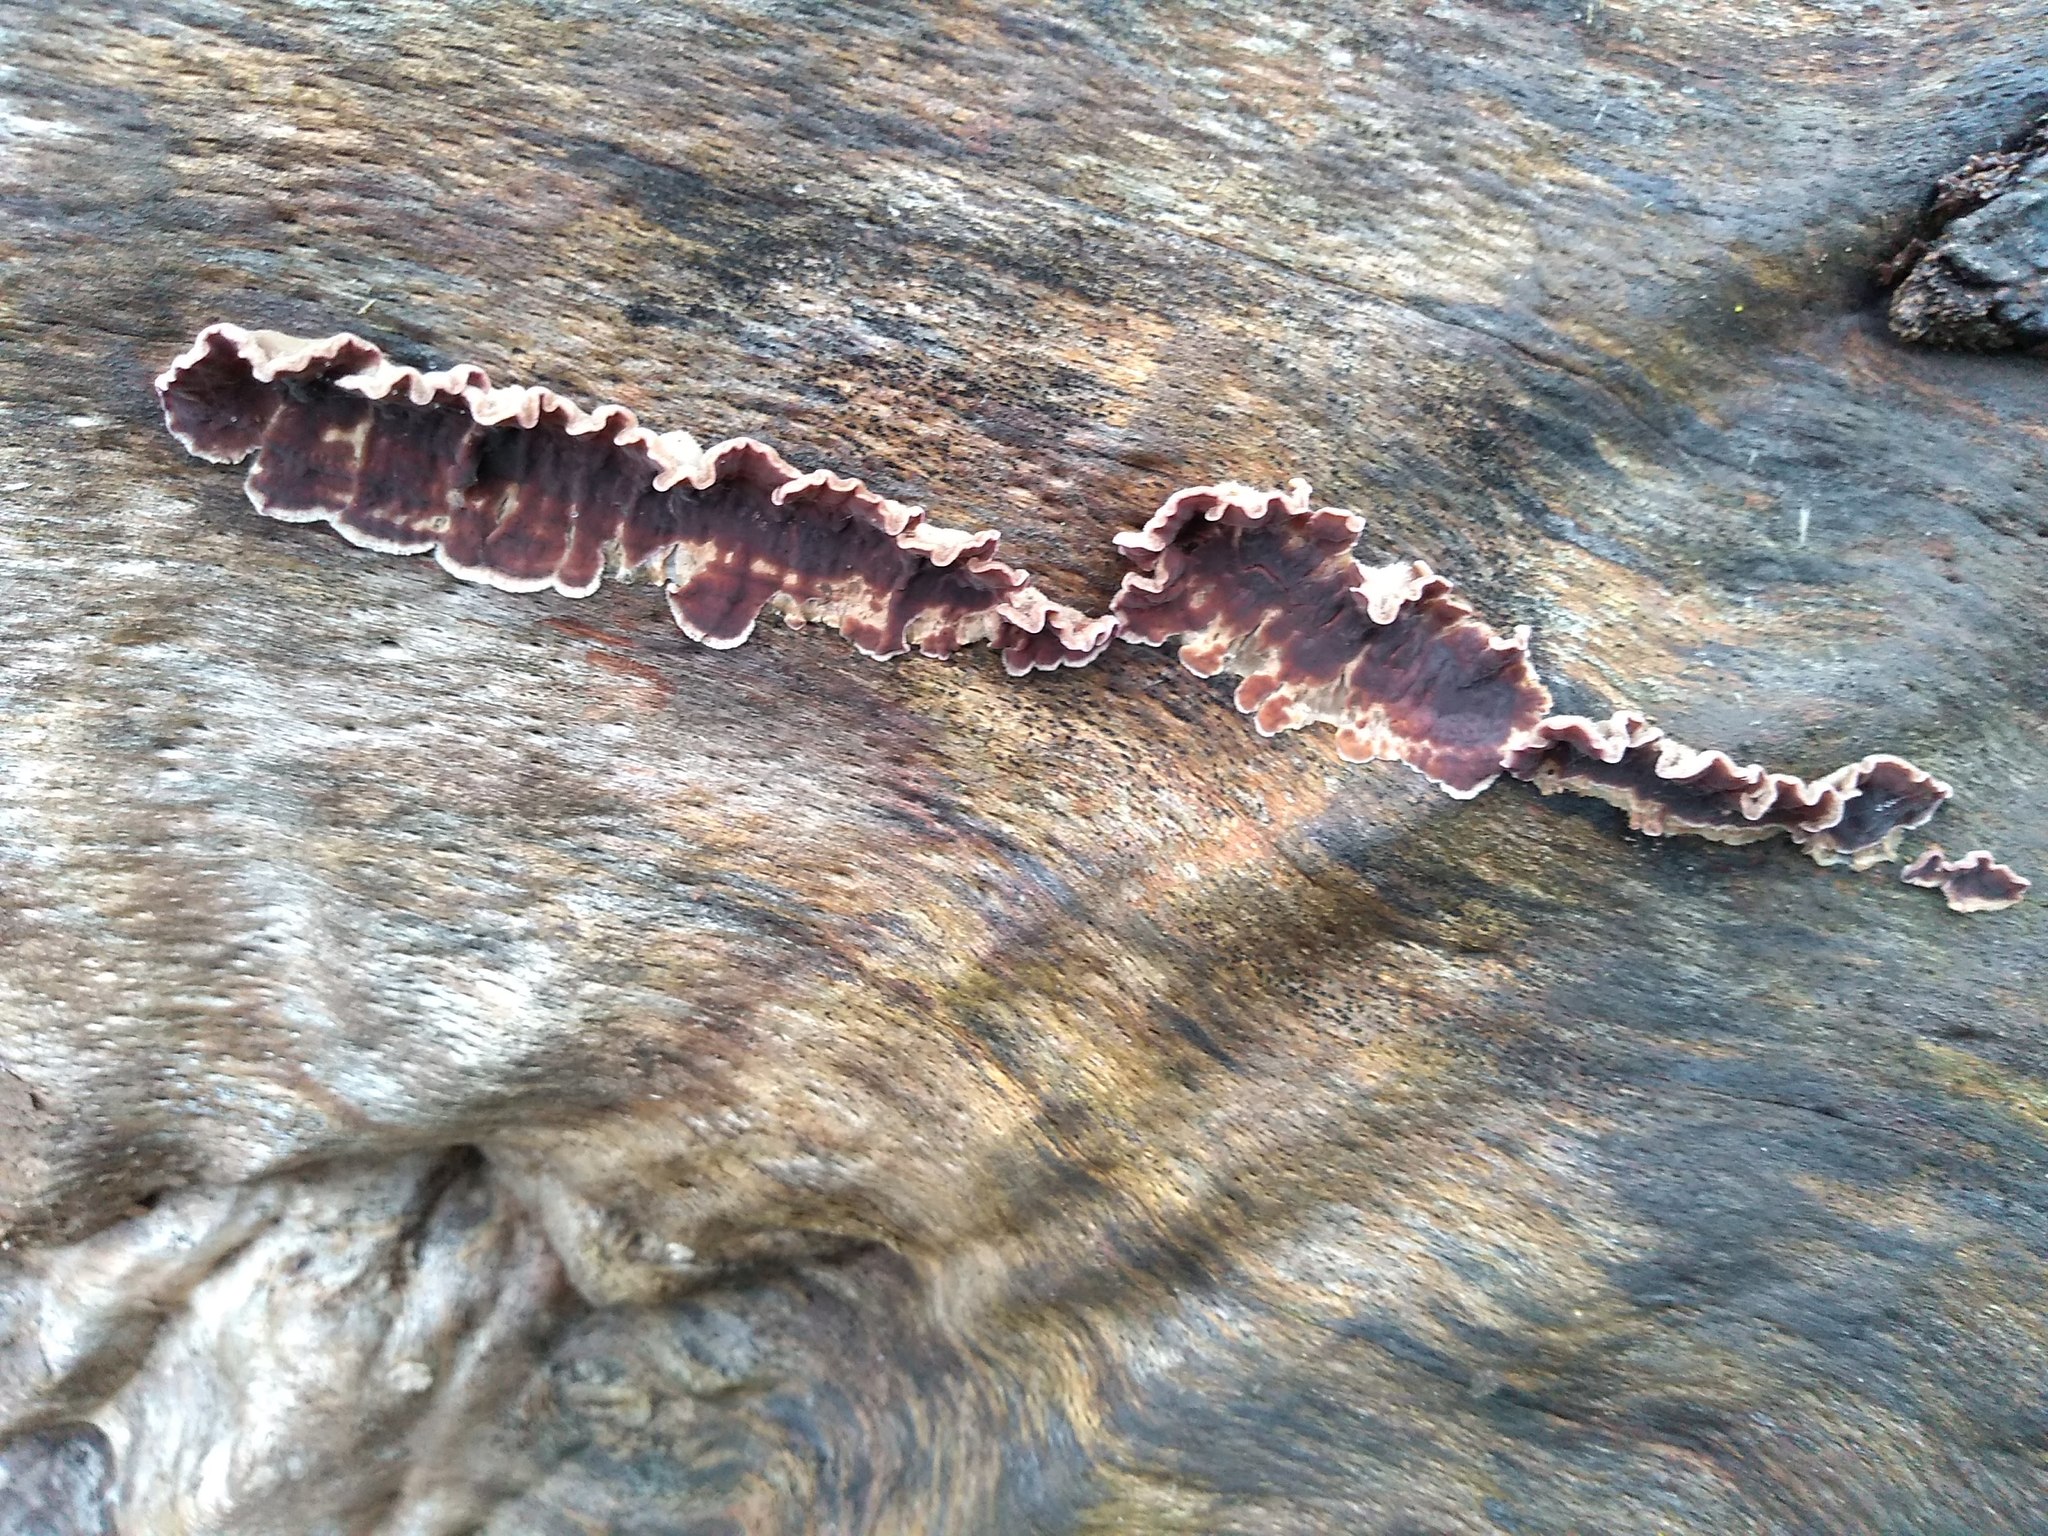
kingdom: Fungi
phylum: Basidiomycota
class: Agaricomycetes
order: Agaricales
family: Cyphellaceae
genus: Chondrostereum
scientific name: Chondrostereum purpureum
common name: Silver leaf disease
